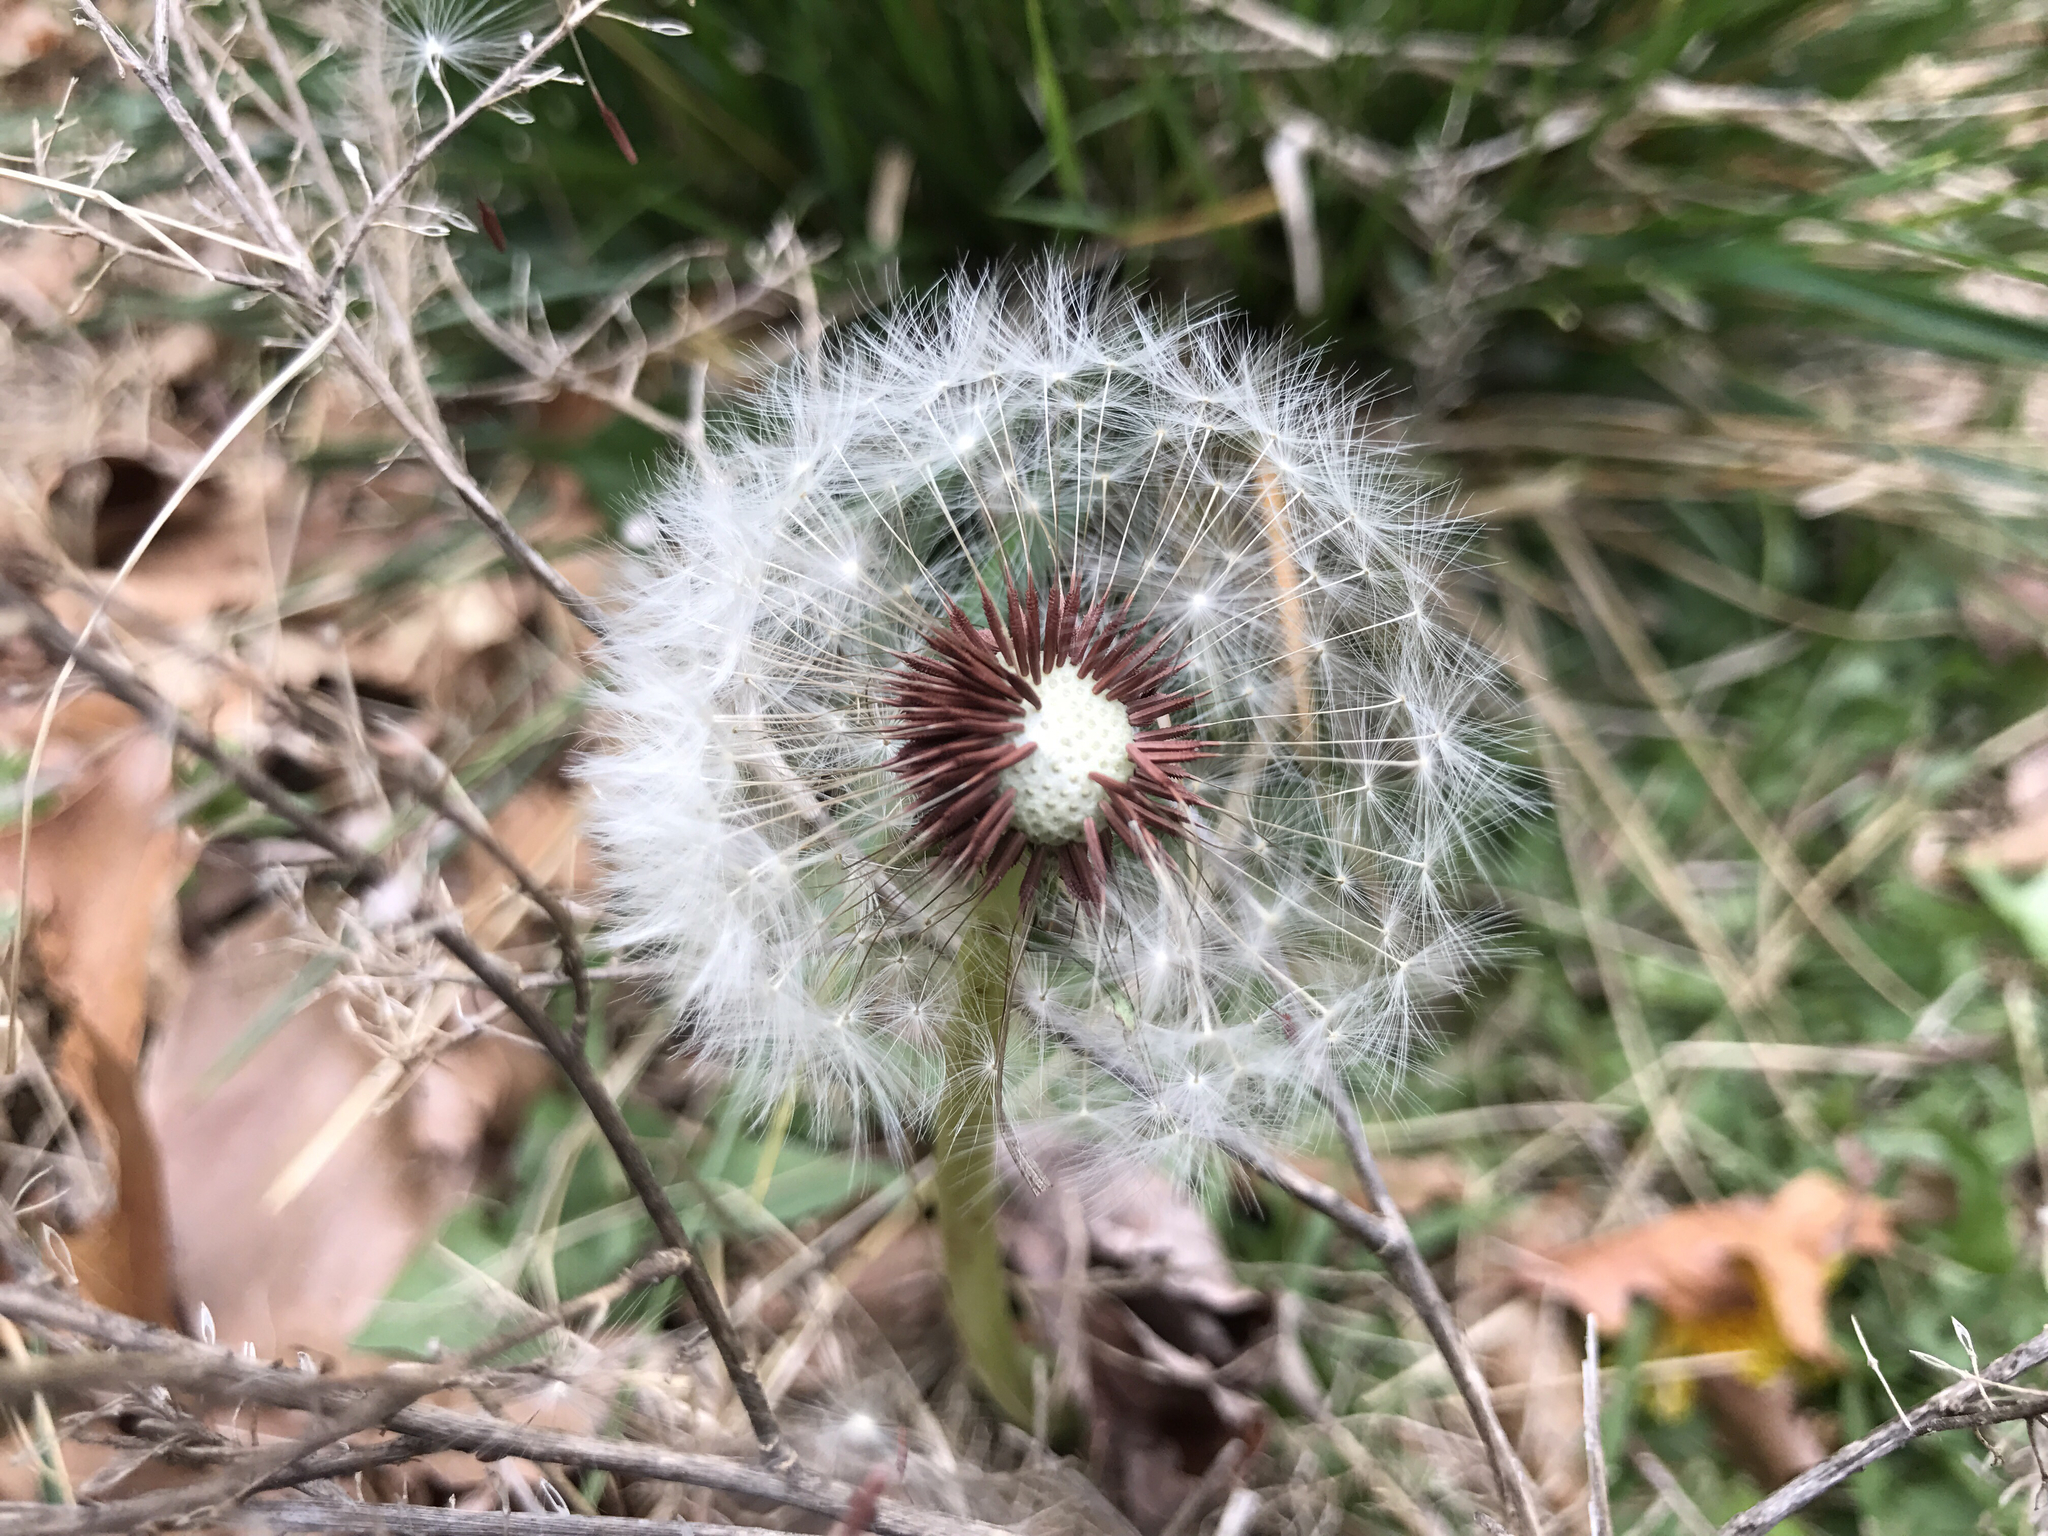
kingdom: Plantae
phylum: Tracheophyta
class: Magnoliopsida
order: Asterales
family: Asteraceae
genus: Taraxacum
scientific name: Taraxacum erythrospermum
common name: Rock dandelion
